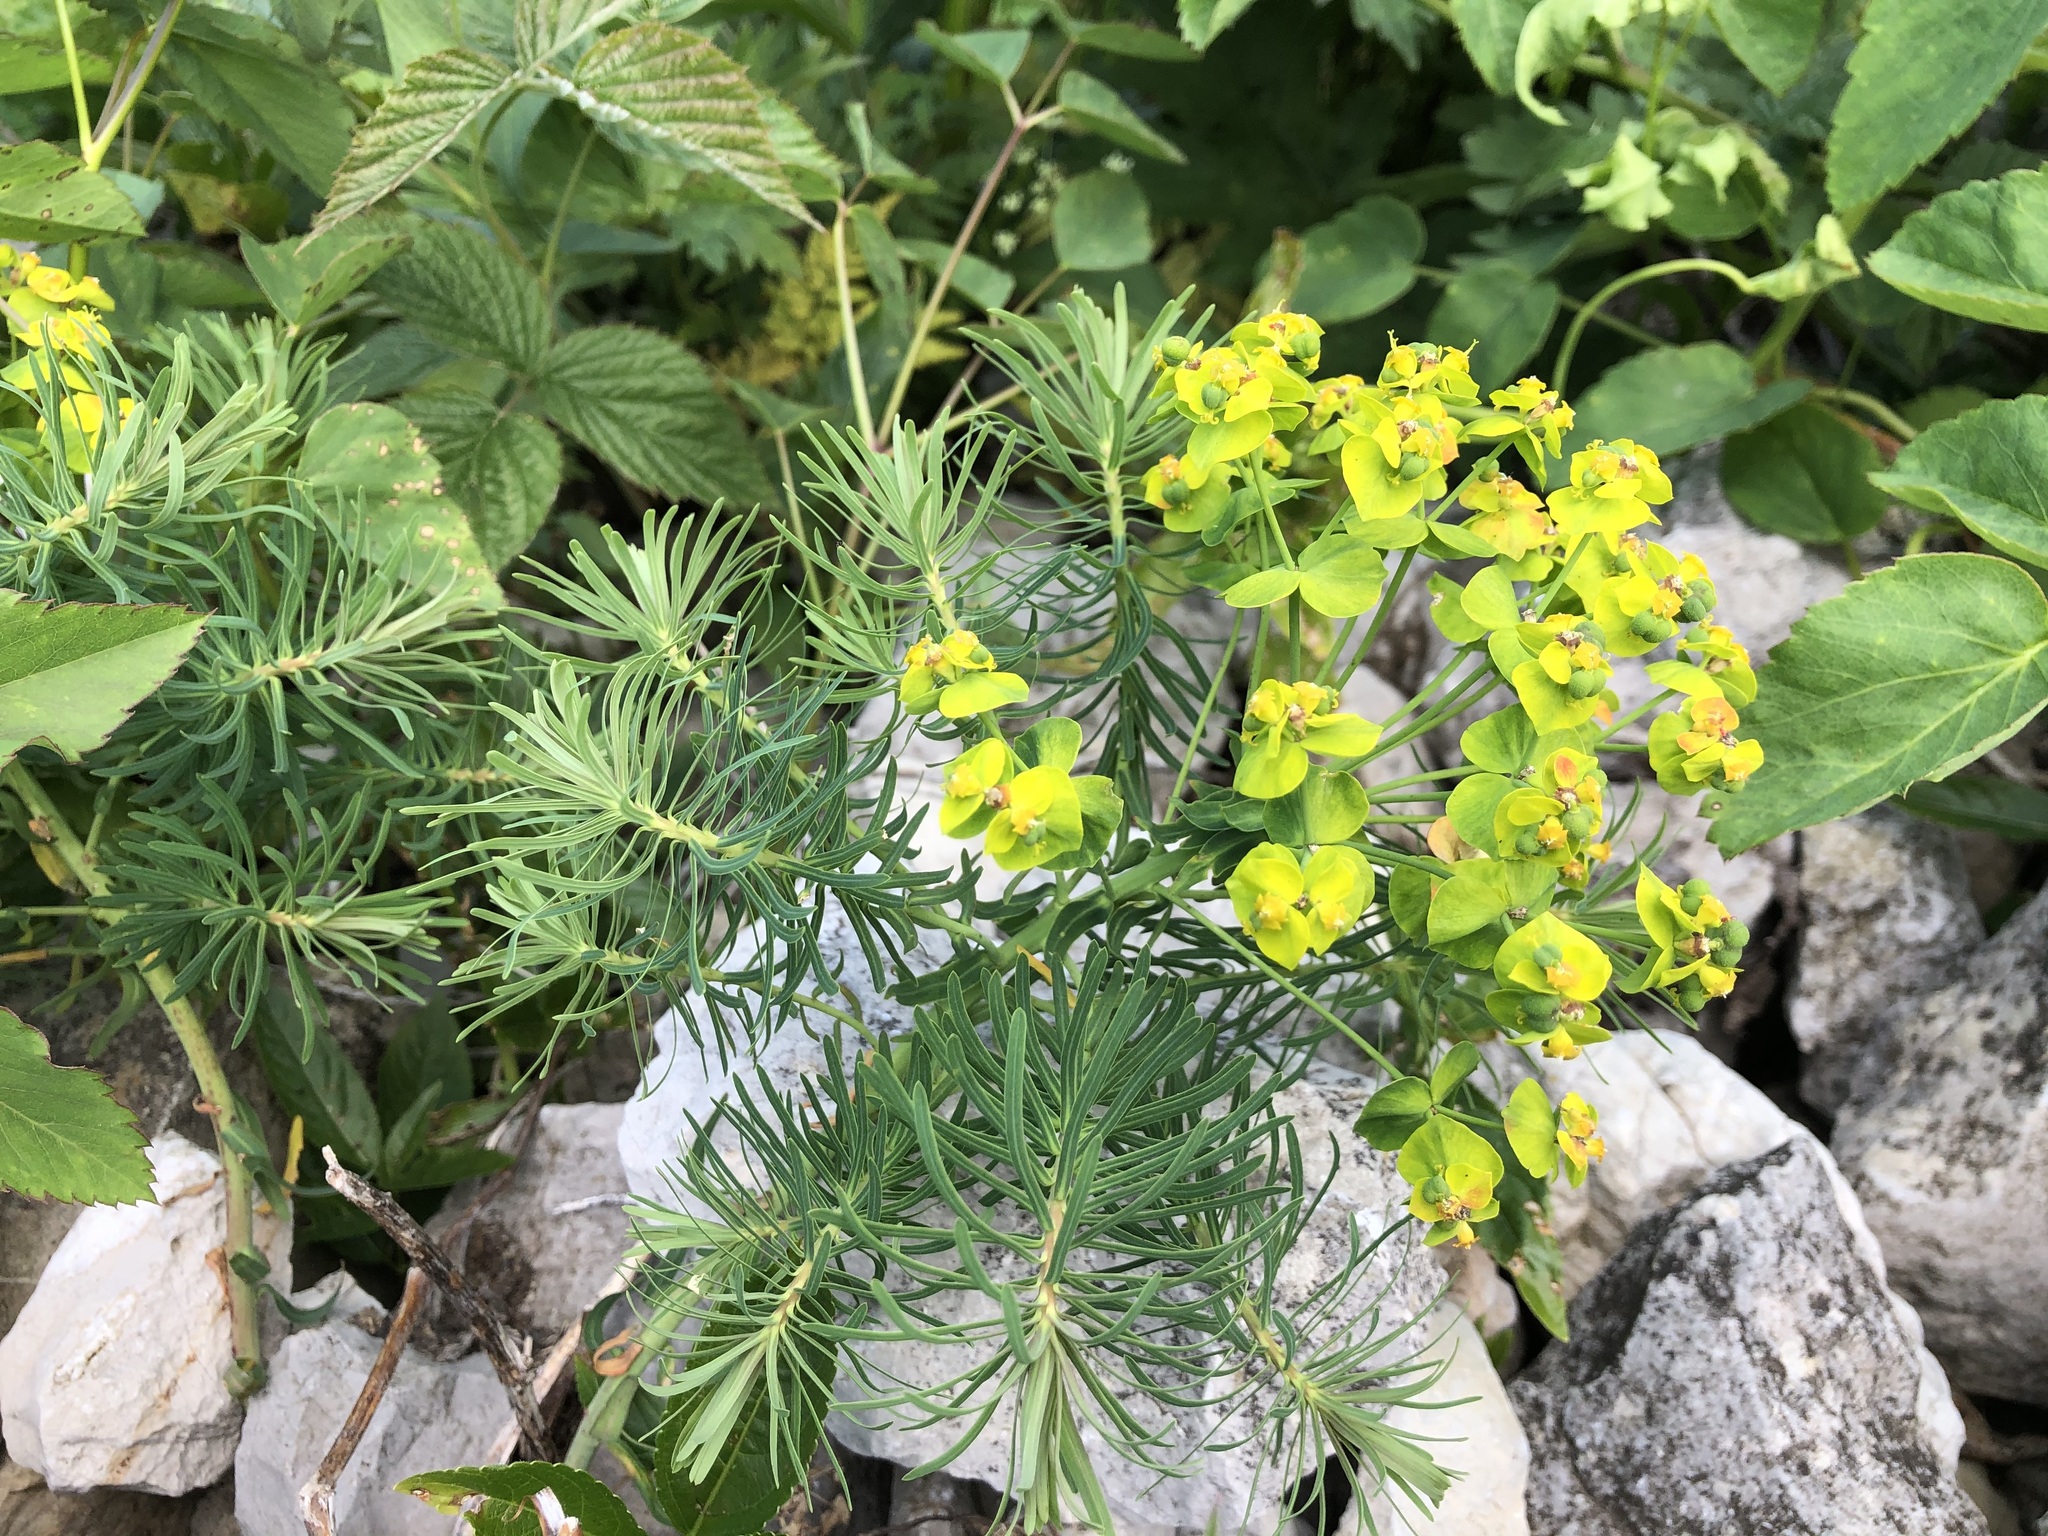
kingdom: Plantae
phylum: Tracheophyta
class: Magnoliopsida
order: Malpighiales
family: Euphorbiaceae
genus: Euphorbia
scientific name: Euphorbia cyparissias
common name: Cypress spurge
